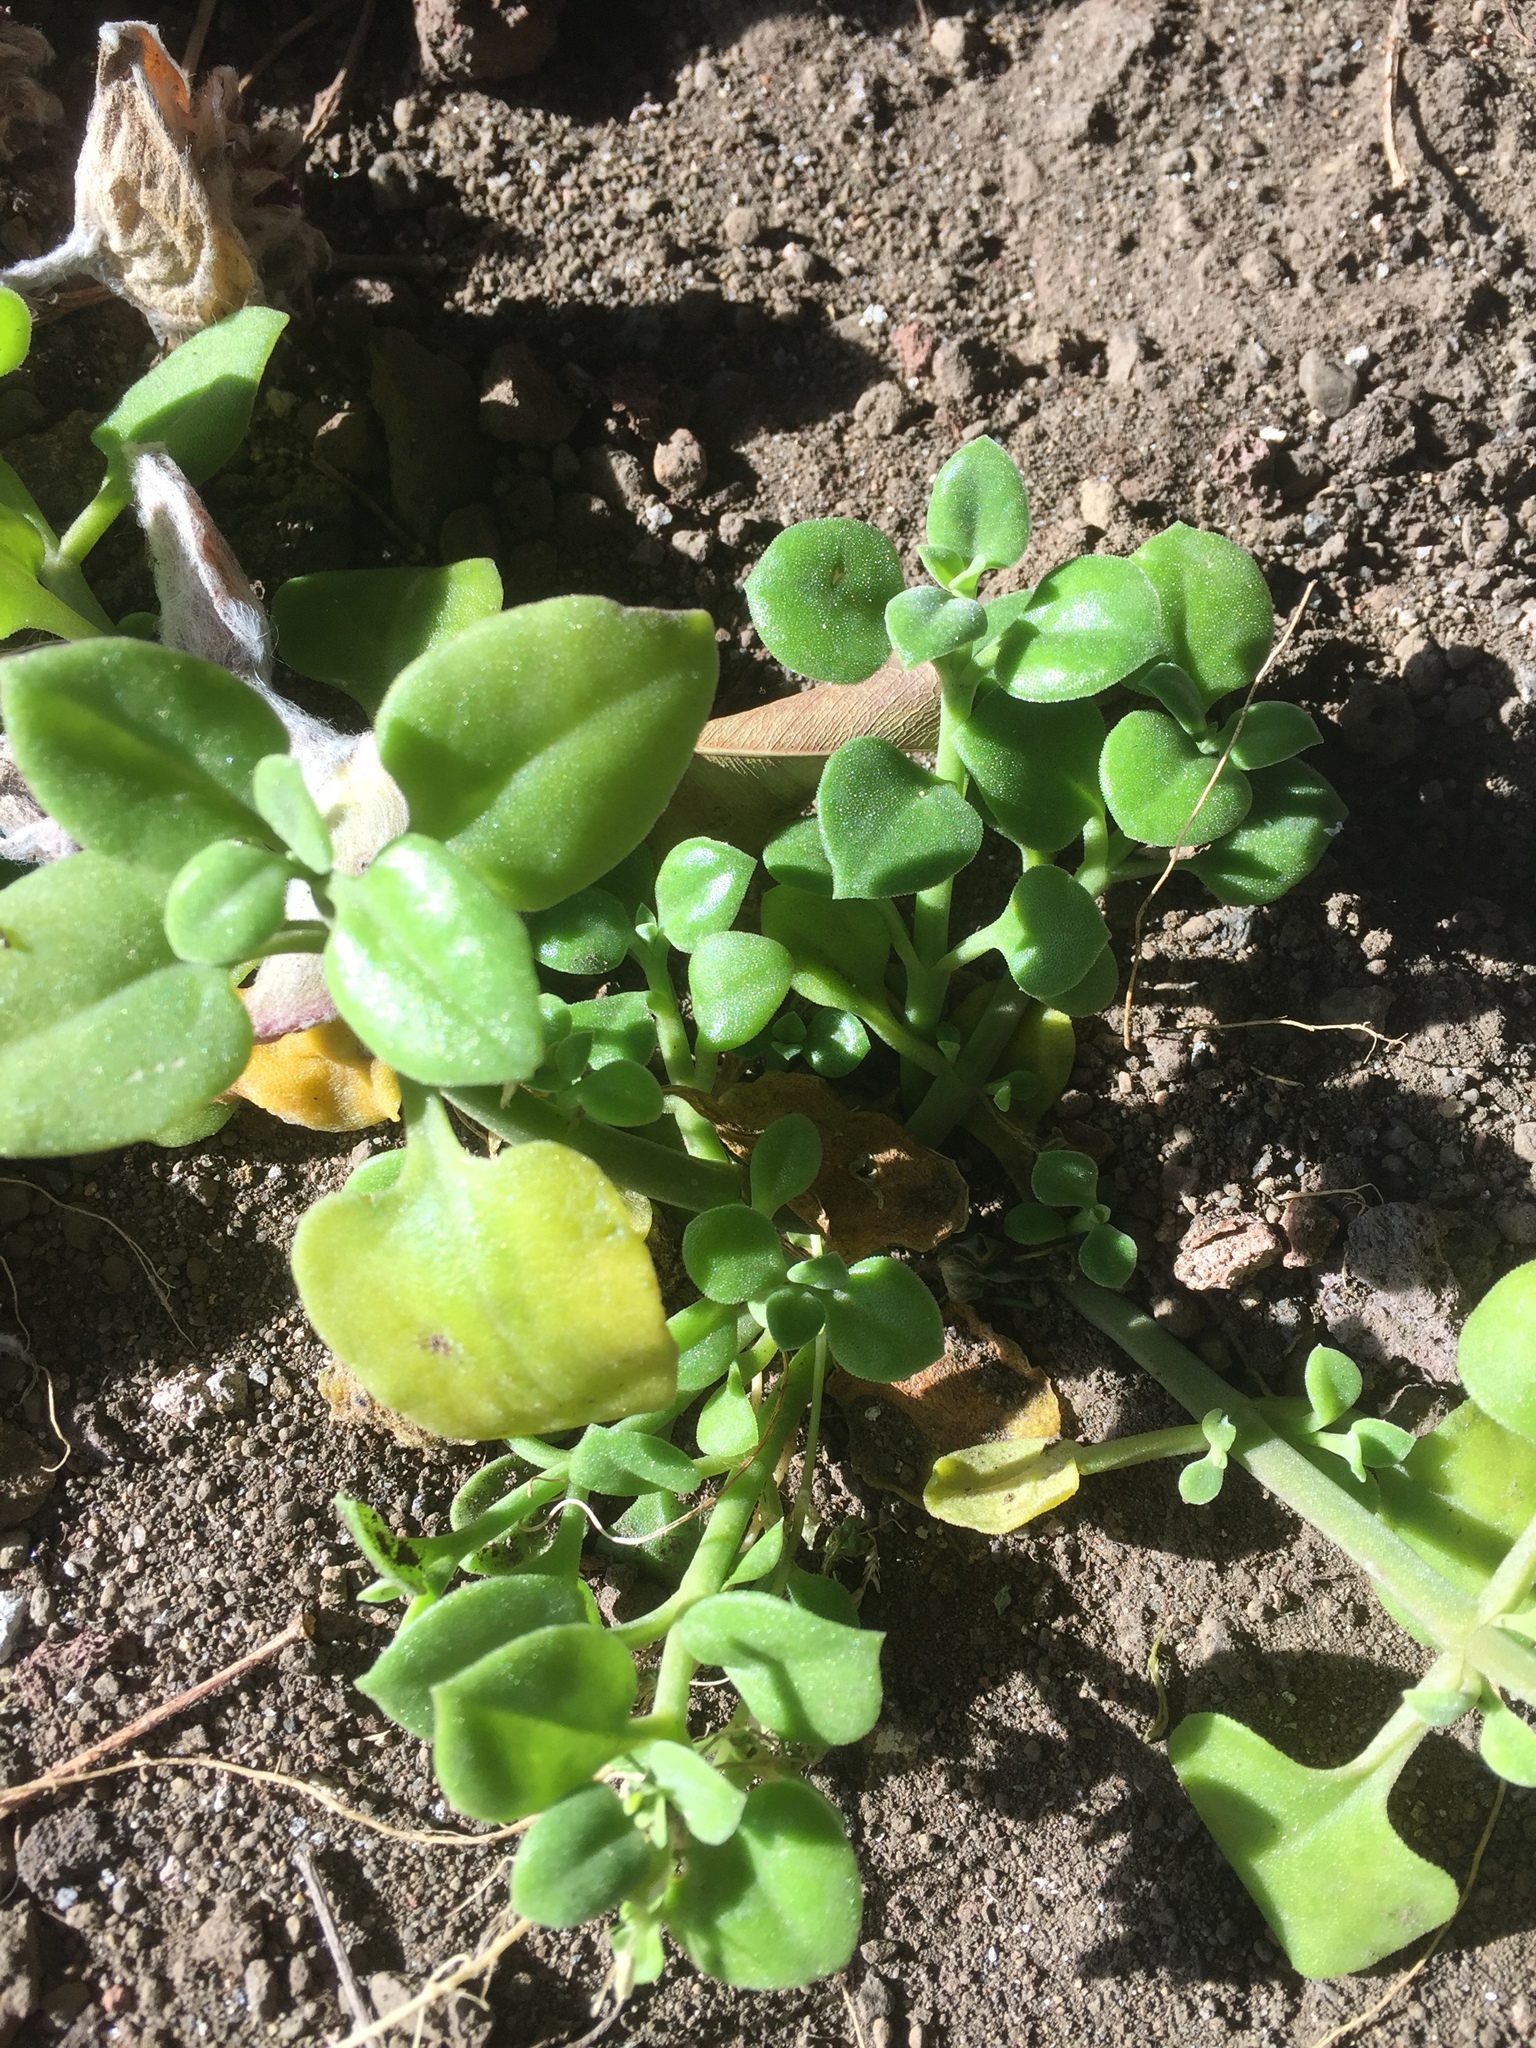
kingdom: Plantae
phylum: Tracheophyta
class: Magnoliopsida
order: Caryophyllales
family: Aizoaceae
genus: Mesembryanthemum
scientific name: Mesembryanthemum cordifolium
